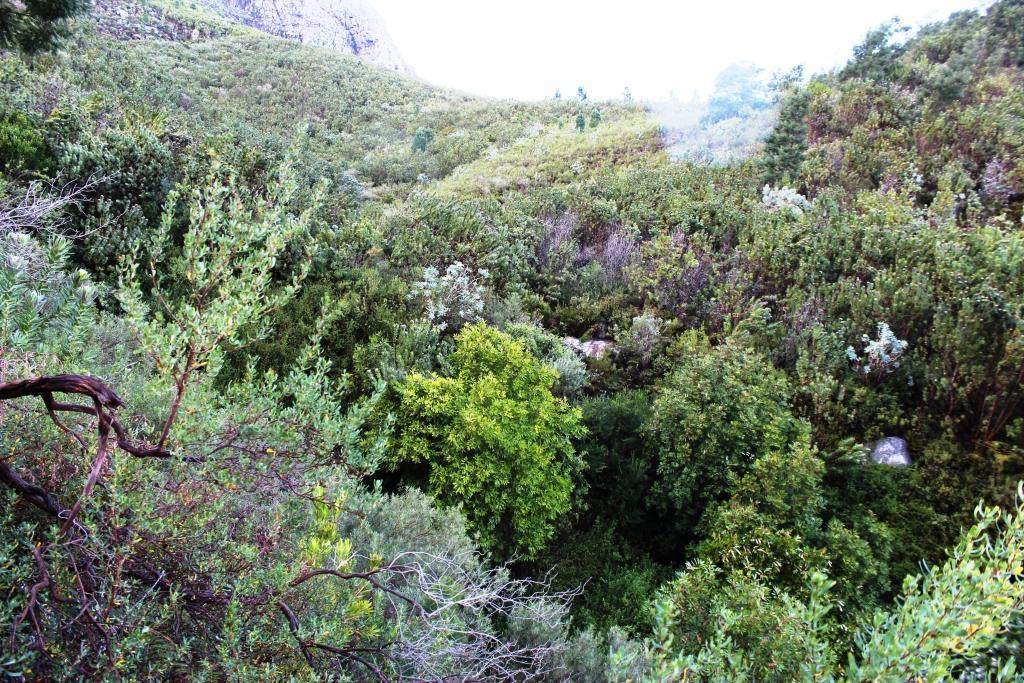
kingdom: Plantae
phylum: Tracheophyta
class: Magnoliopsida
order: Oxalidales
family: Cunoniaceae
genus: Cunonia
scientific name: Cunonia capensis
